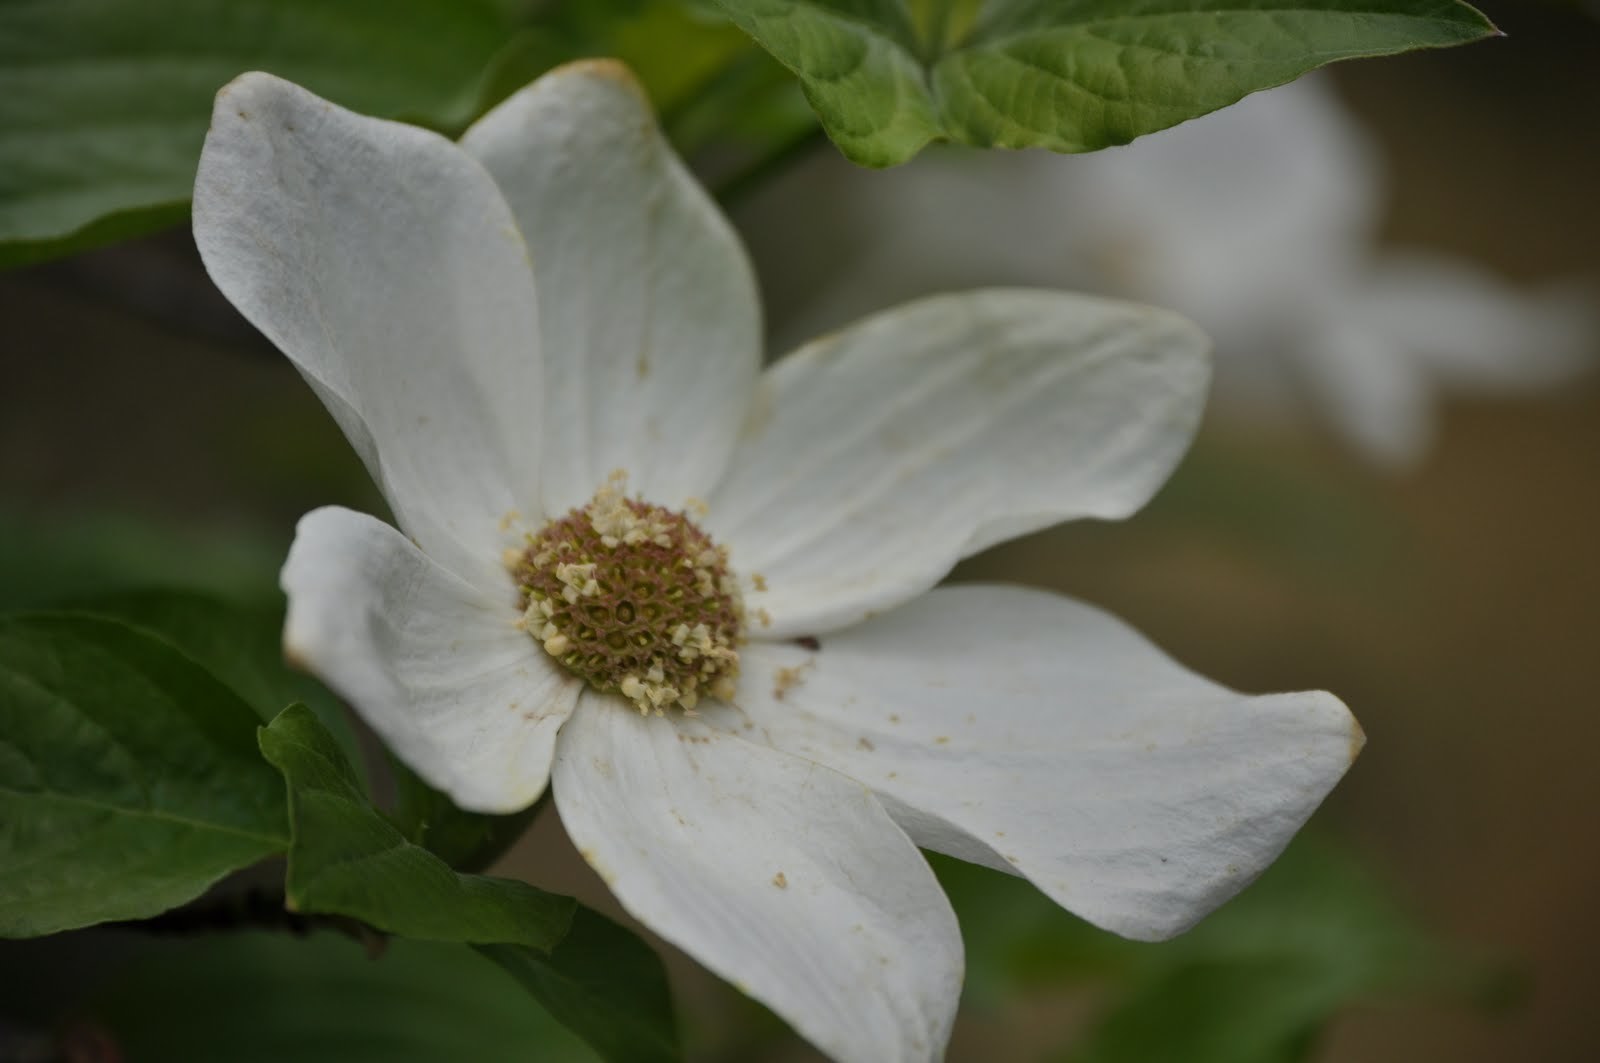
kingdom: Plantae
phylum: Tracheophyta
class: Magnoliopsida
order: Cornales
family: Cornaceae
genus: Cornus
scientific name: Cornus nuttallii
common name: Pacific dogwood
